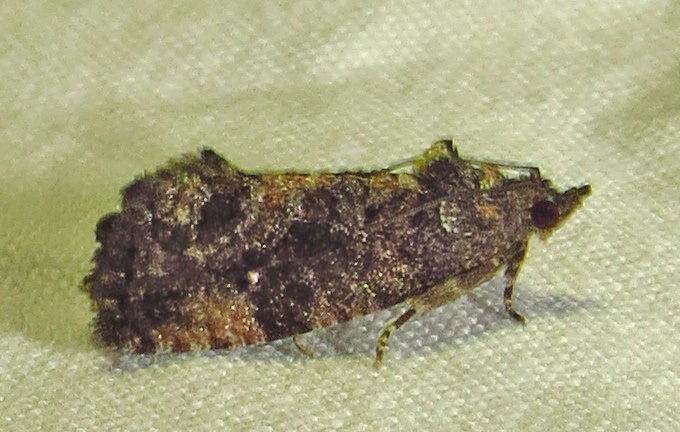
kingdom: Animalia
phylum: Arthropoda
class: Insecta
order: Lepidoptera
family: Tortricidae
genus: Gymnandrosoma
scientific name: Gymnandrosoma punctidiscanum
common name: Dotted ecdytolopha moth
